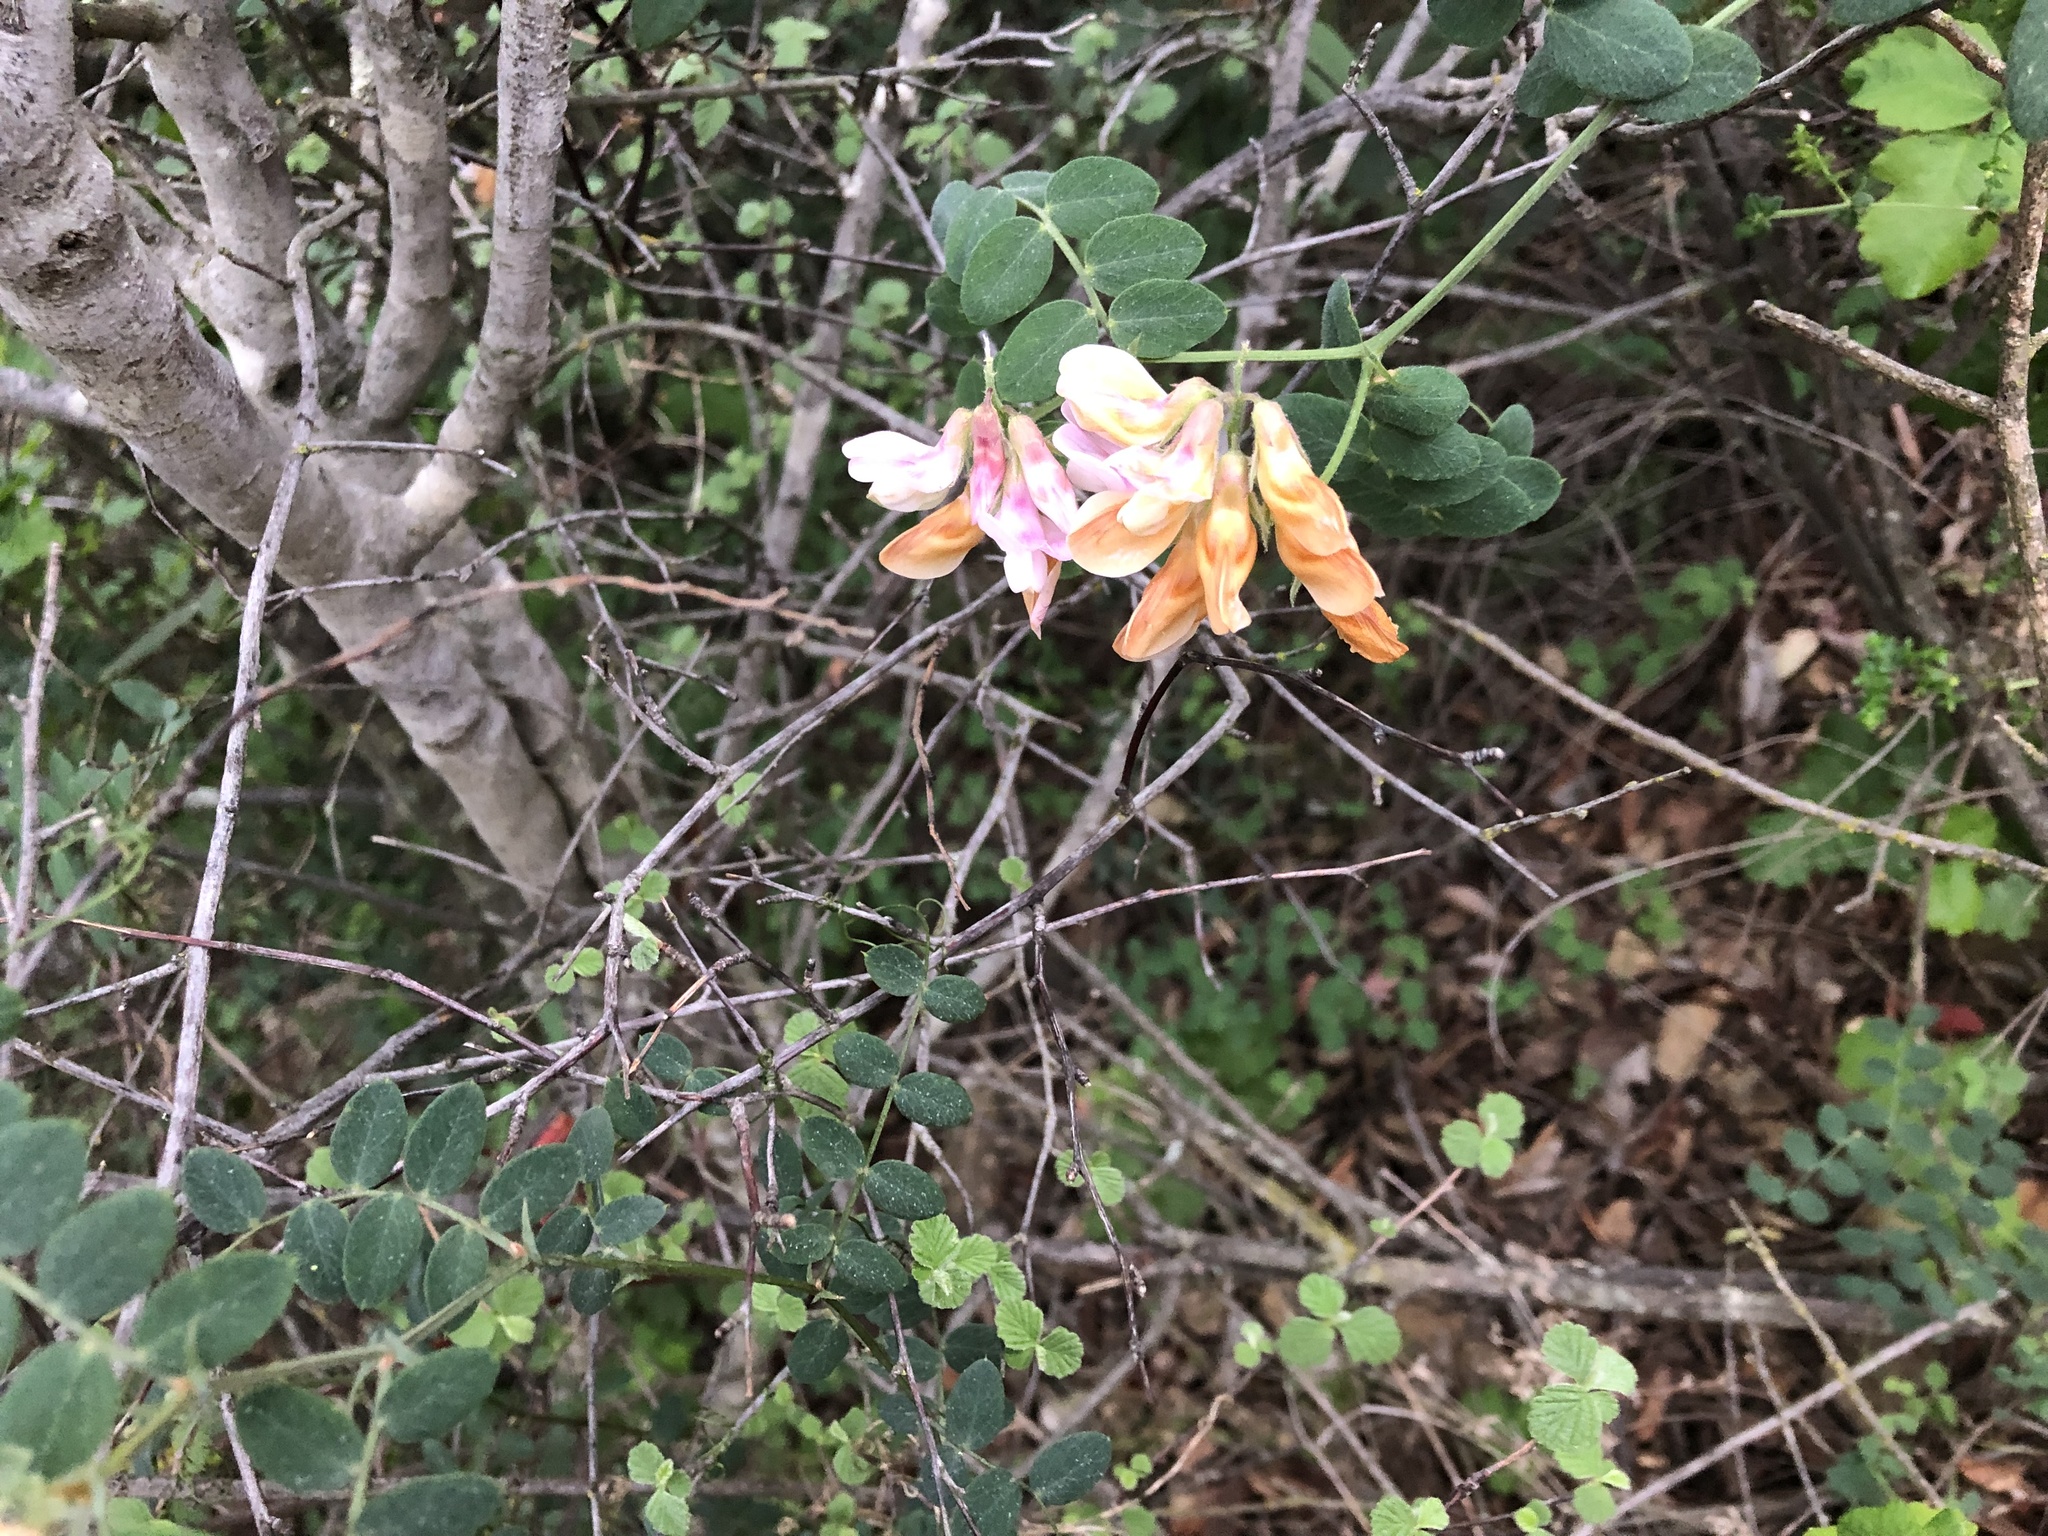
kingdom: Plantae
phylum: Tracheophyta
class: Magnoliopsida
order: Fabales
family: Fabaceae
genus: Lathyrus
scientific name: Lathyrus vestitus
